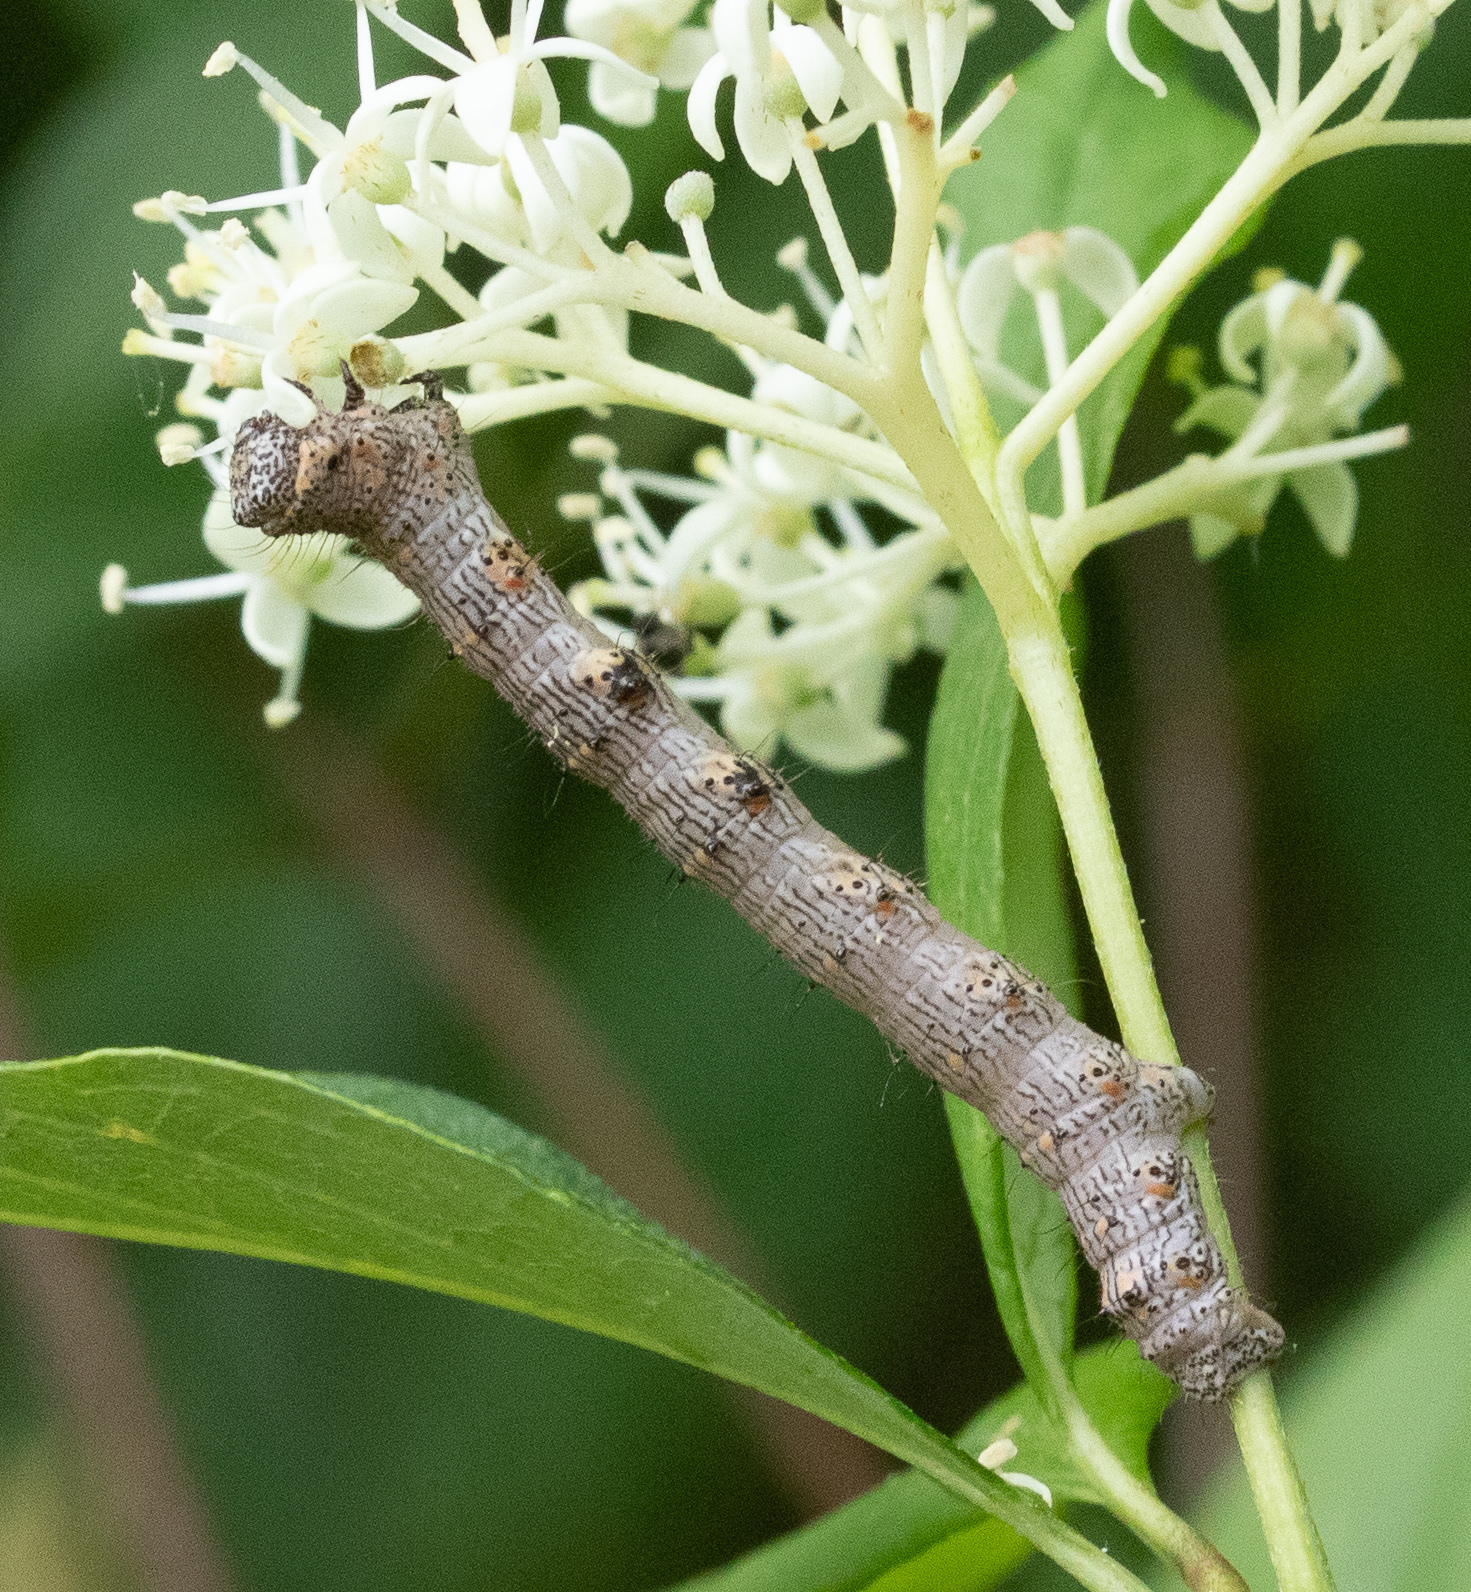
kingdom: Animalia
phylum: Arthropoda
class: Insecta
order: Lepidoptera
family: Geometridae
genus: Phigalia
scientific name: Phigalia titea
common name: Spiny looper
